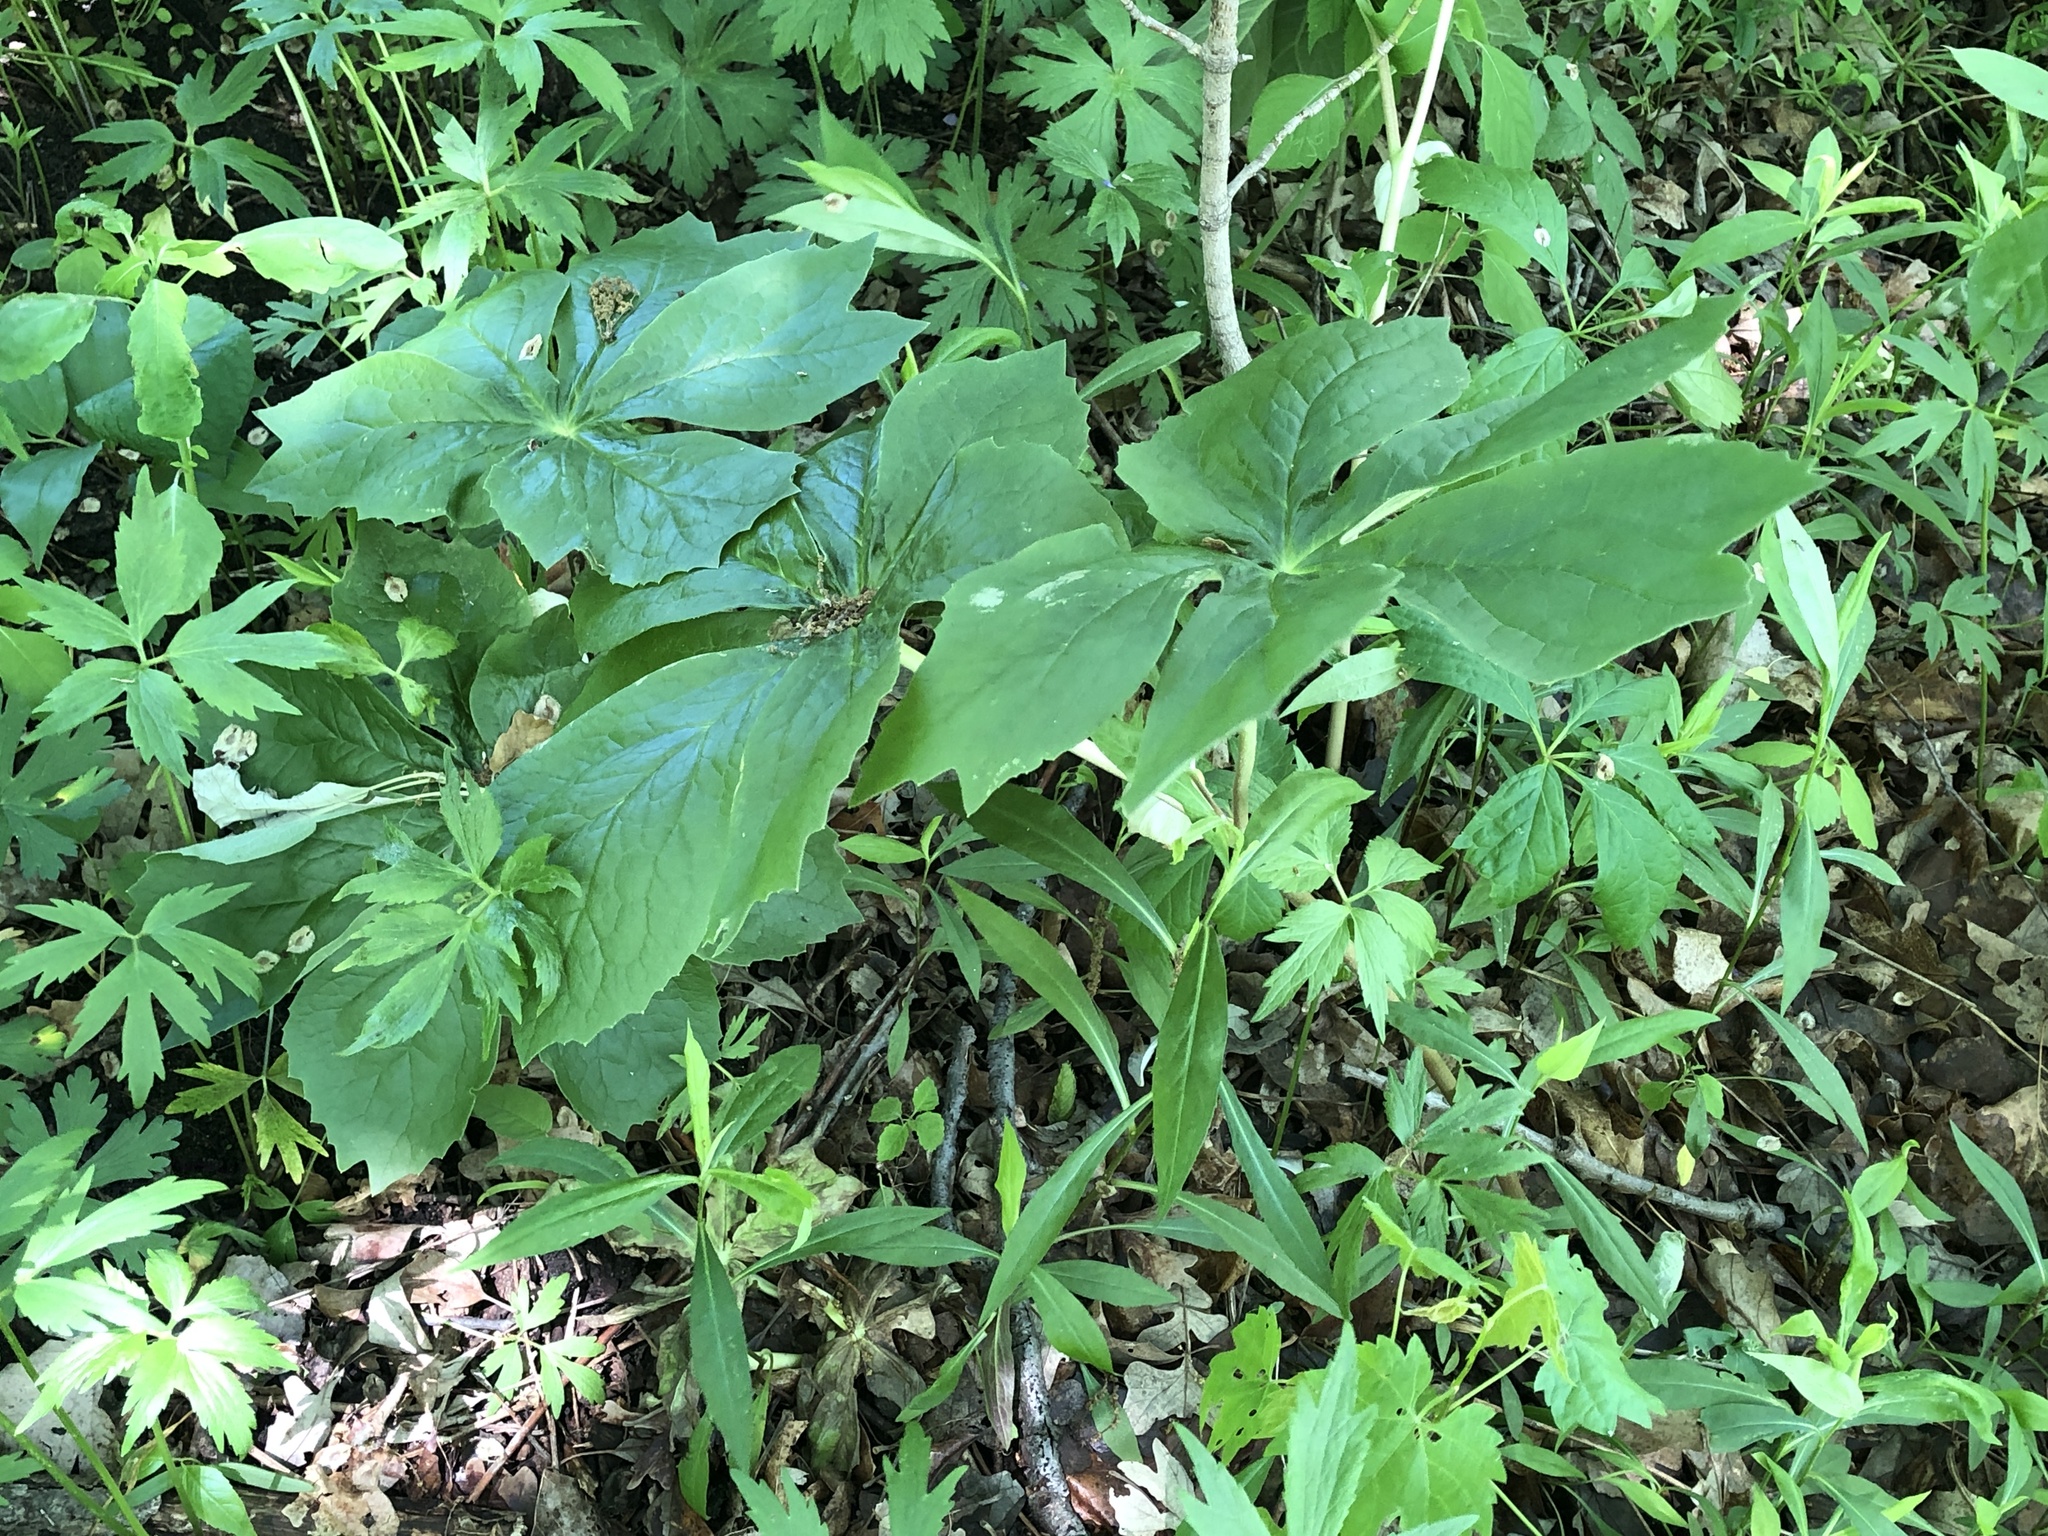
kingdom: Plantae
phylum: Tracheophyta
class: Magnoliopsida
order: Ranunculales
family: Berberidaceae
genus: Podophyllum
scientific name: Podophyllum peltatum
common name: Wild mandrake
